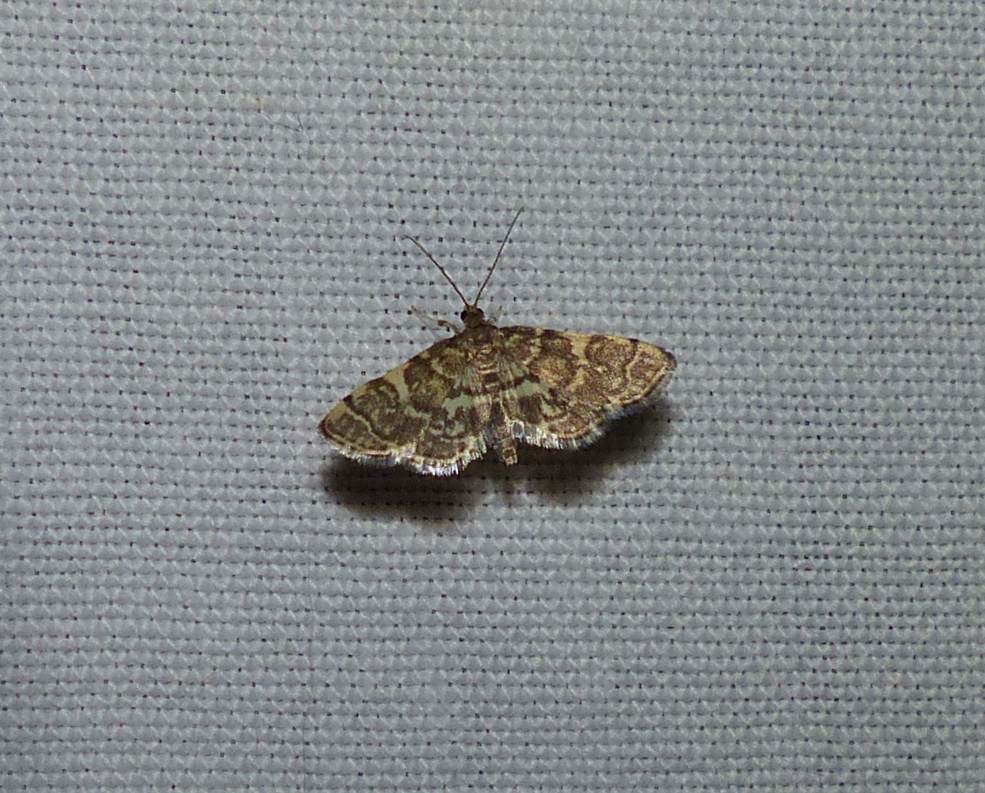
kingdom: Animalia
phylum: Arthropoda
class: Insecta
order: Lepidoptera
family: Crambidae
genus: Anageshna
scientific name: Anageshna primordialis
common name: Yellow-spotted webworm moth
